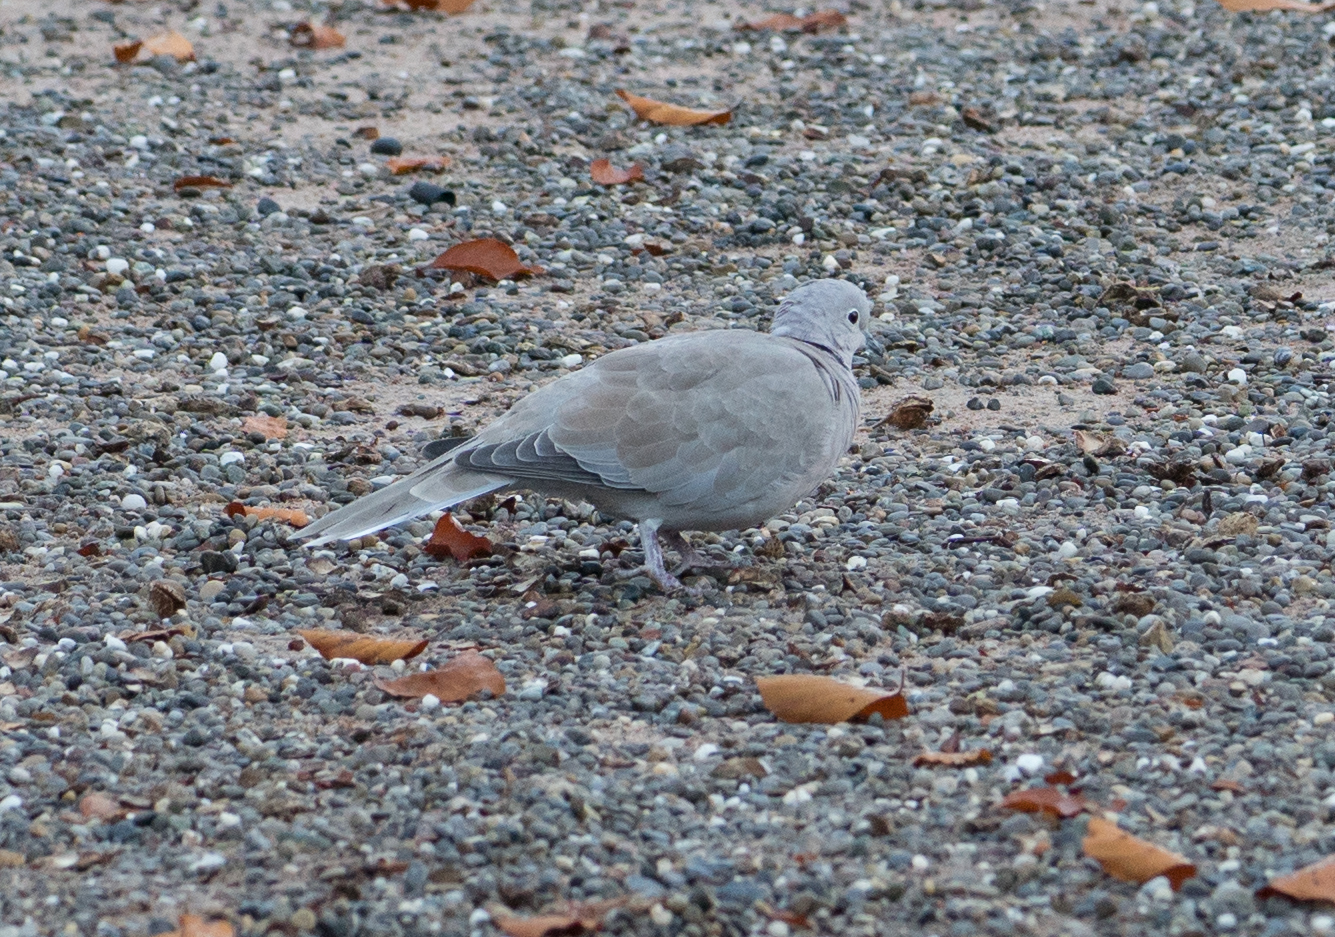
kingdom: Animalia
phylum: Chordata
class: Aves
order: Columbiformes
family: Columbidae
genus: Streptopelia
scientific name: Streptopelia decaocto
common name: Eurasian collared dove
